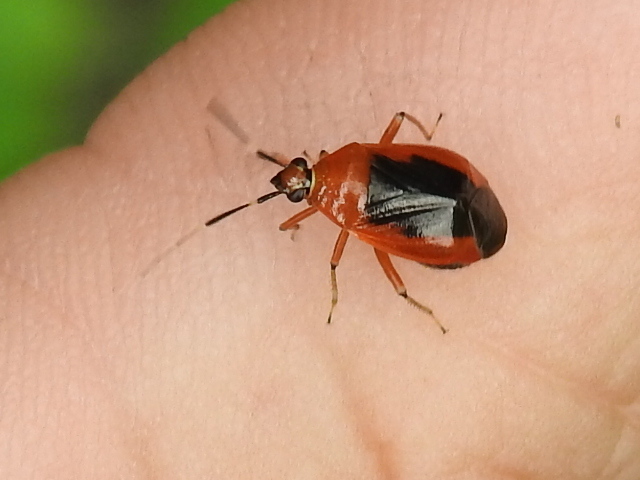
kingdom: Animalia
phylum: Arthropoda
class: Insecta
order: Hemiptera
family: Miridae
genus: Metriorrhynchomiris
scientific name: Metriorrhynchomiris dislocatus
